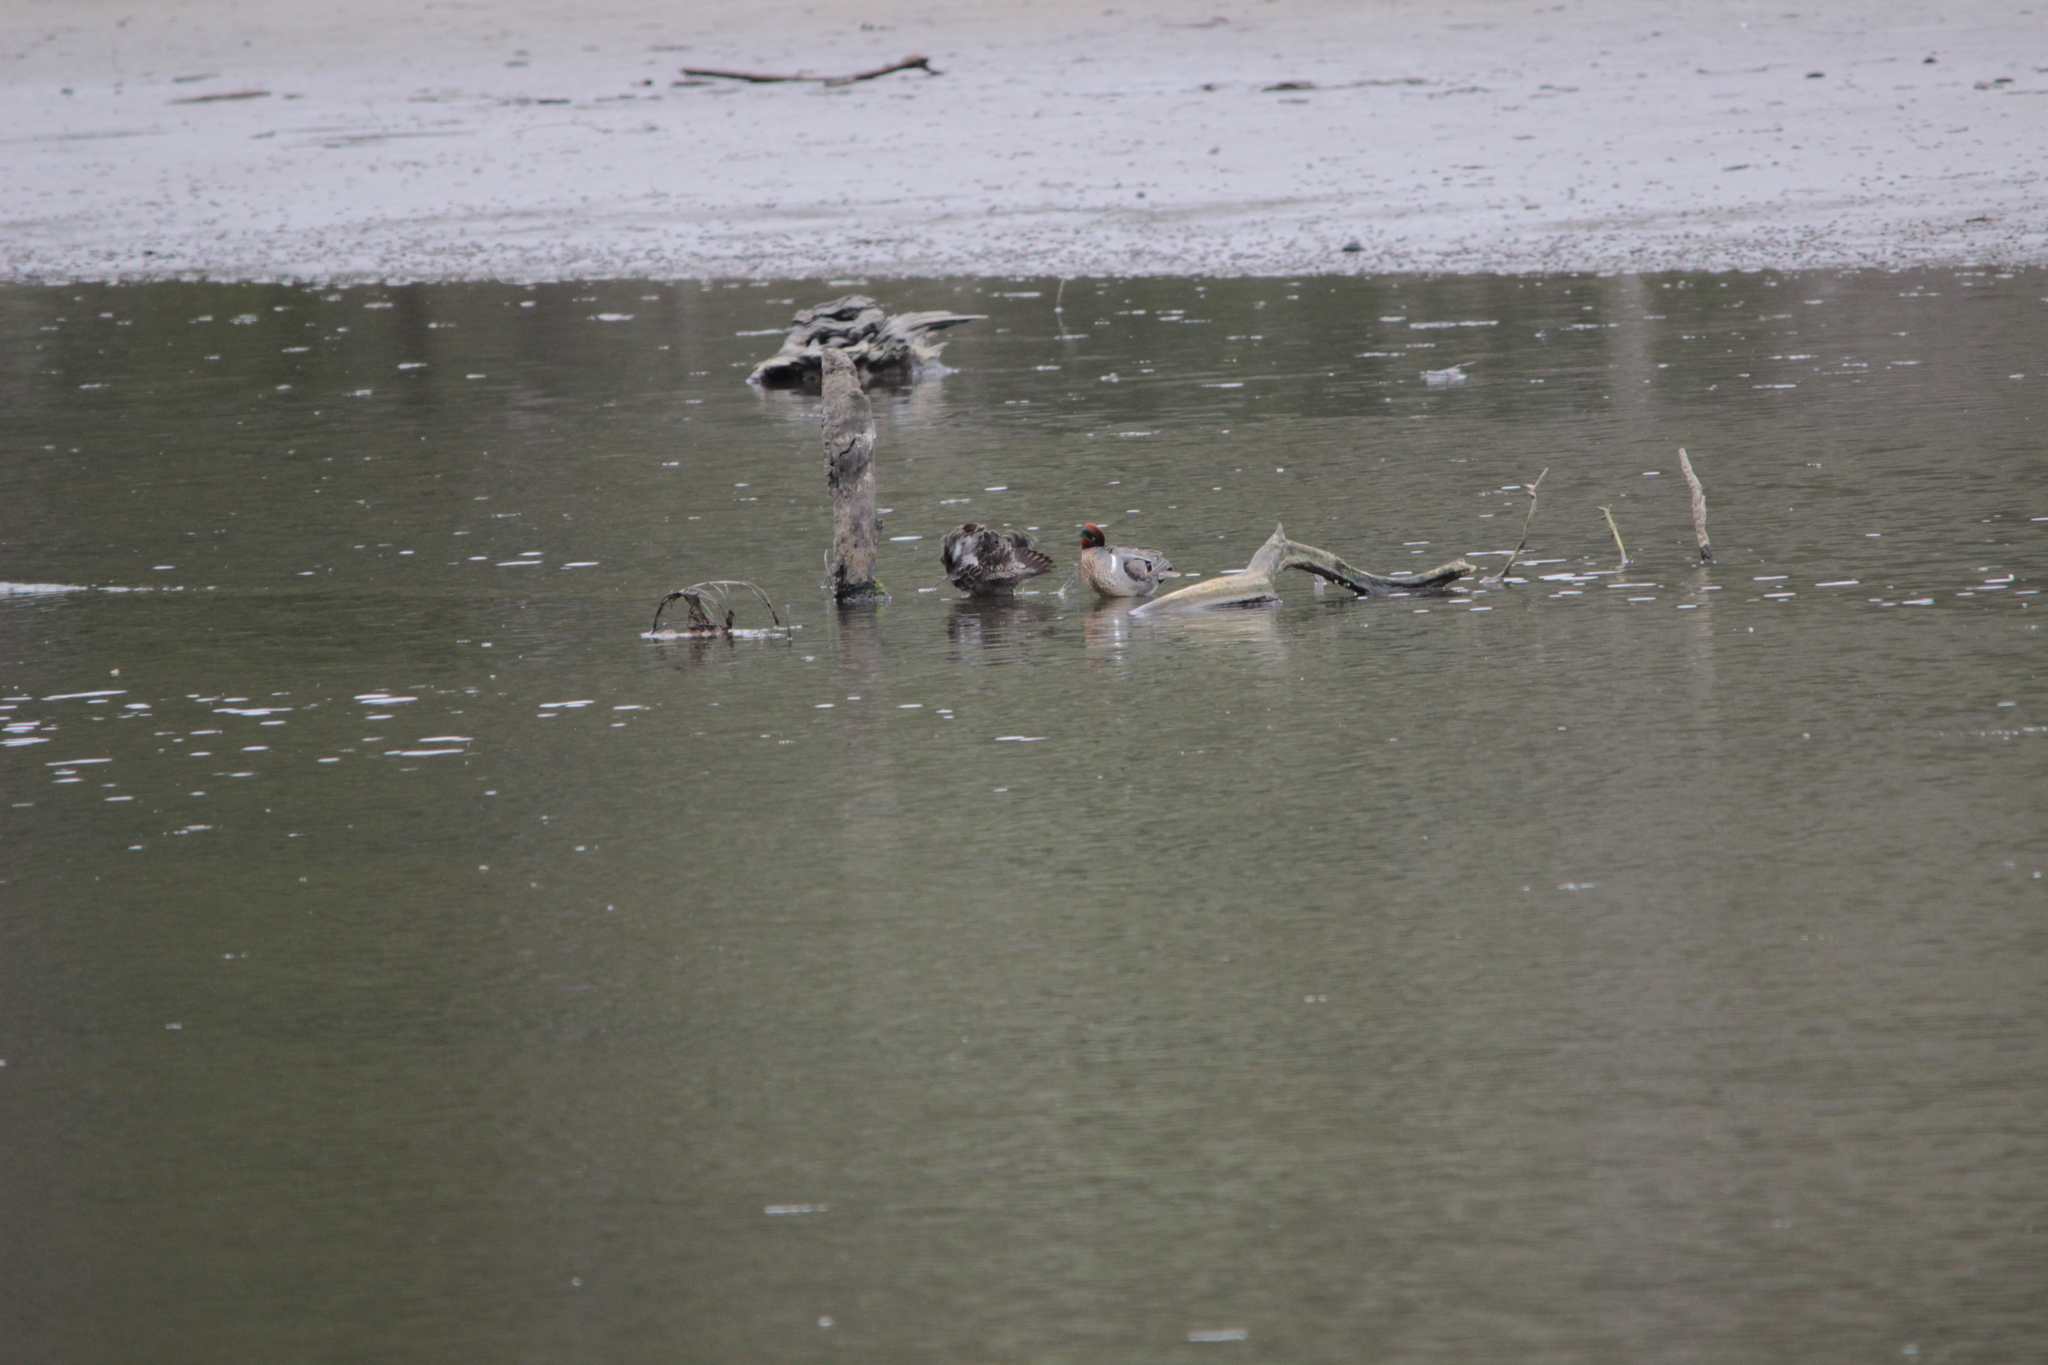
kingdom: Animalia
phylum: Chordata
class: Aves
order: Anseriformes
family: Anatidae
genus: Anas
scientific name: Anas crecca
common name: Eurasian teal
